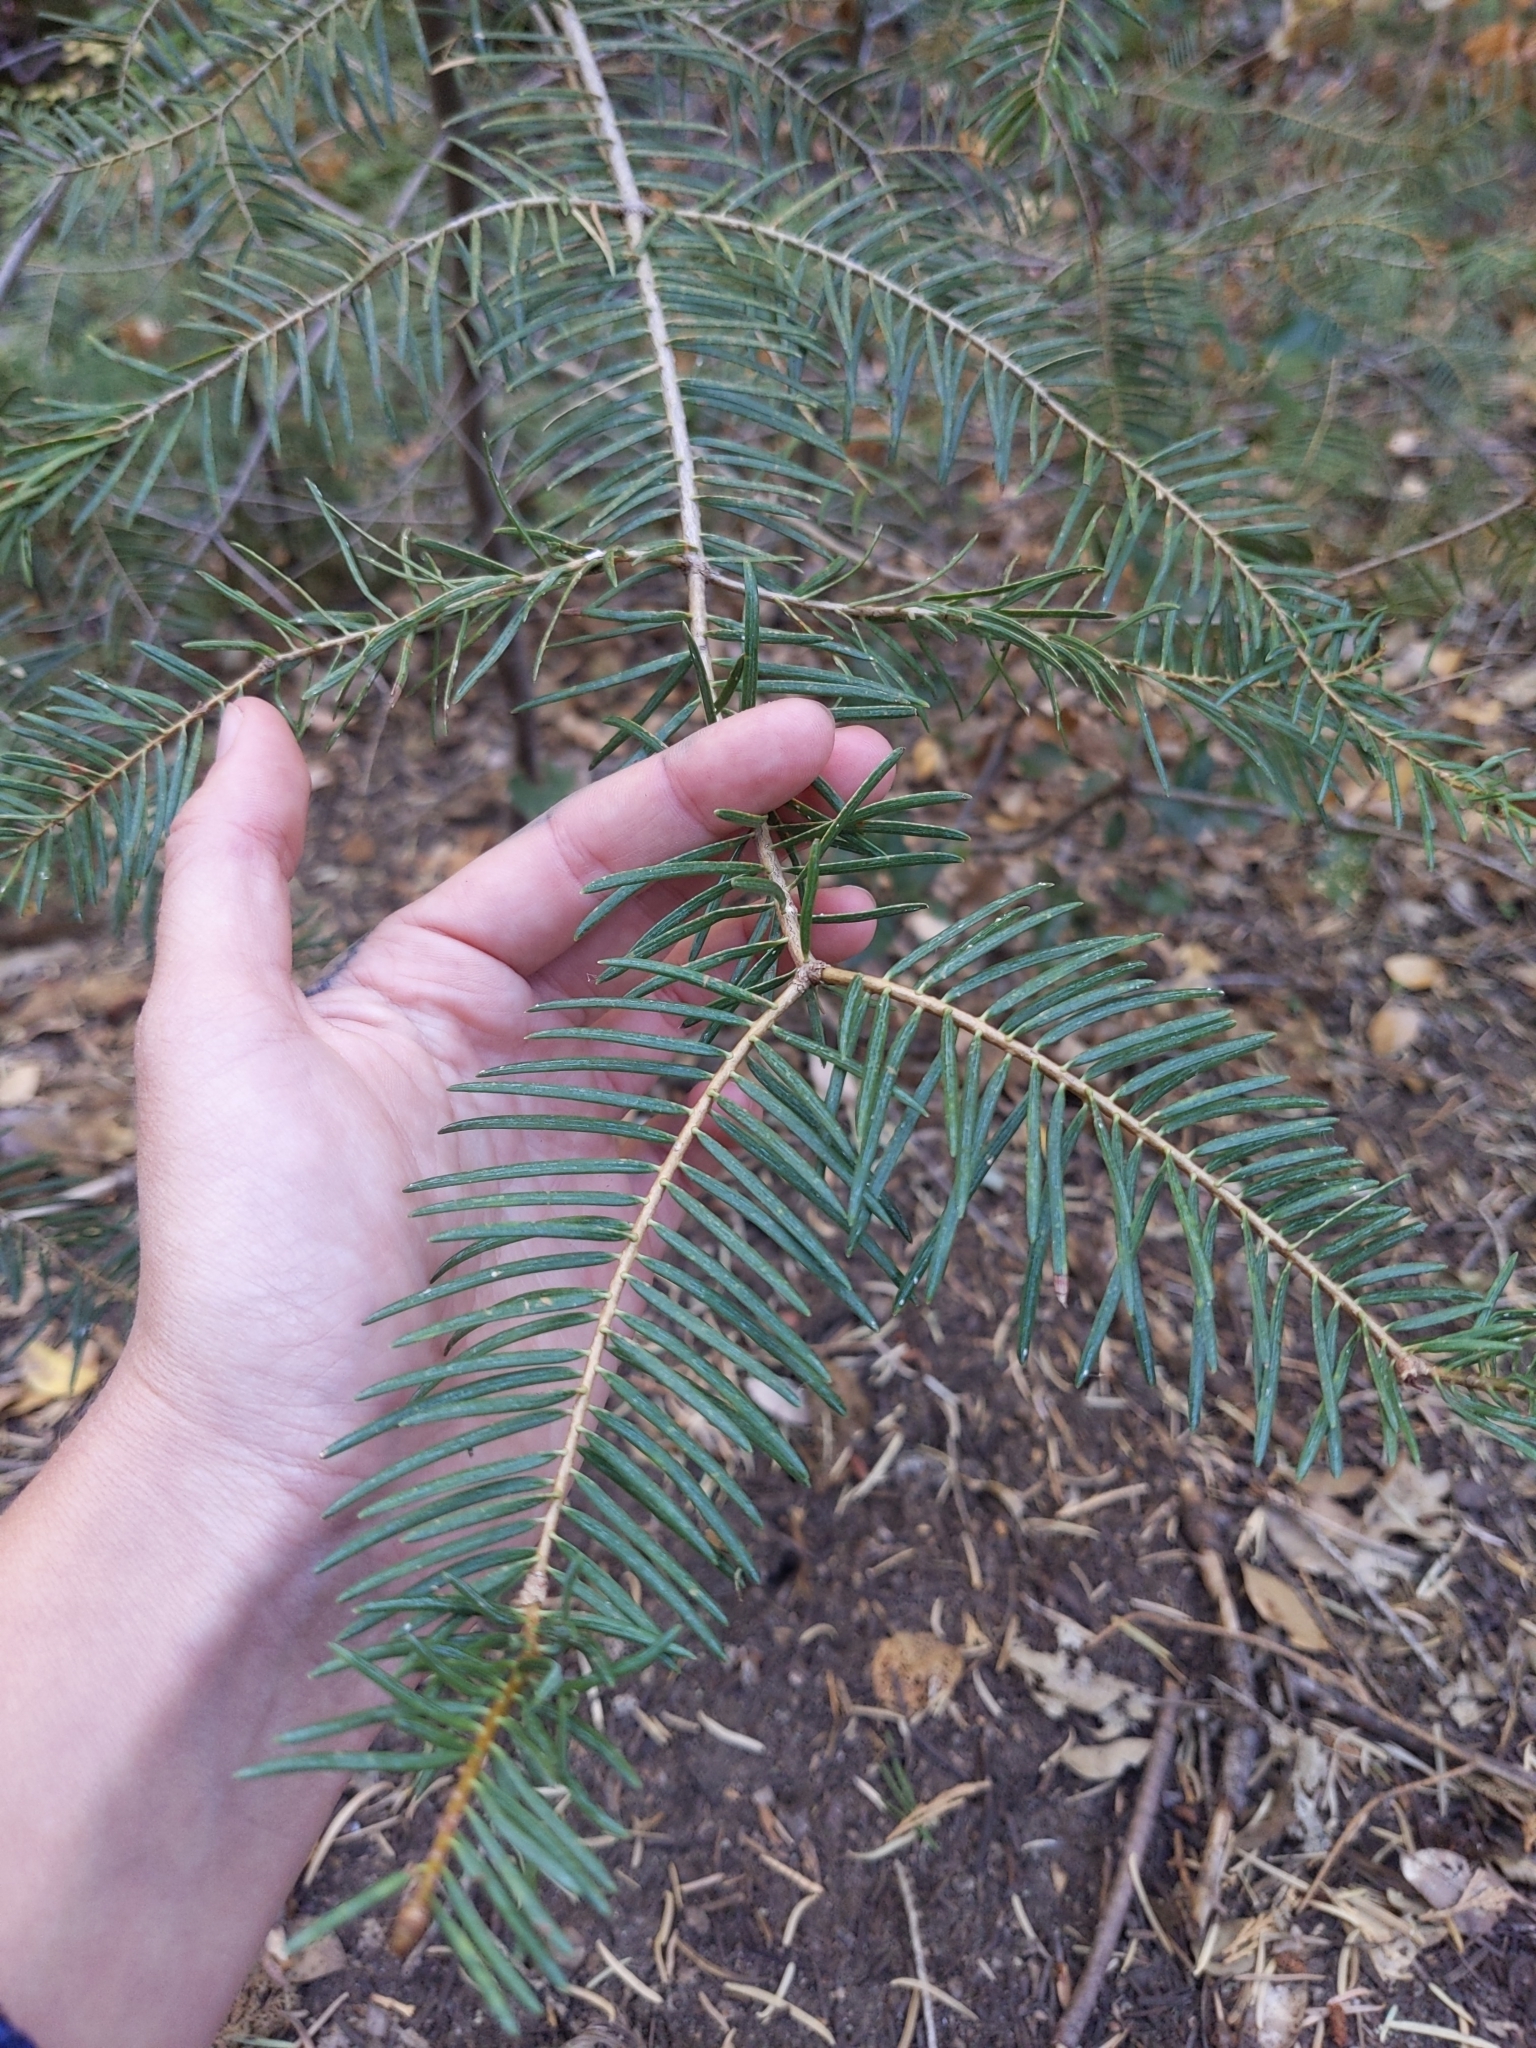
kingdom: Plantae
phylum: Tracheophyta
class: Pinopsida
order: Pinales
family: Pinaceae
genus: Abies
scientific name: Abies concolor
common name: Colorado fir
